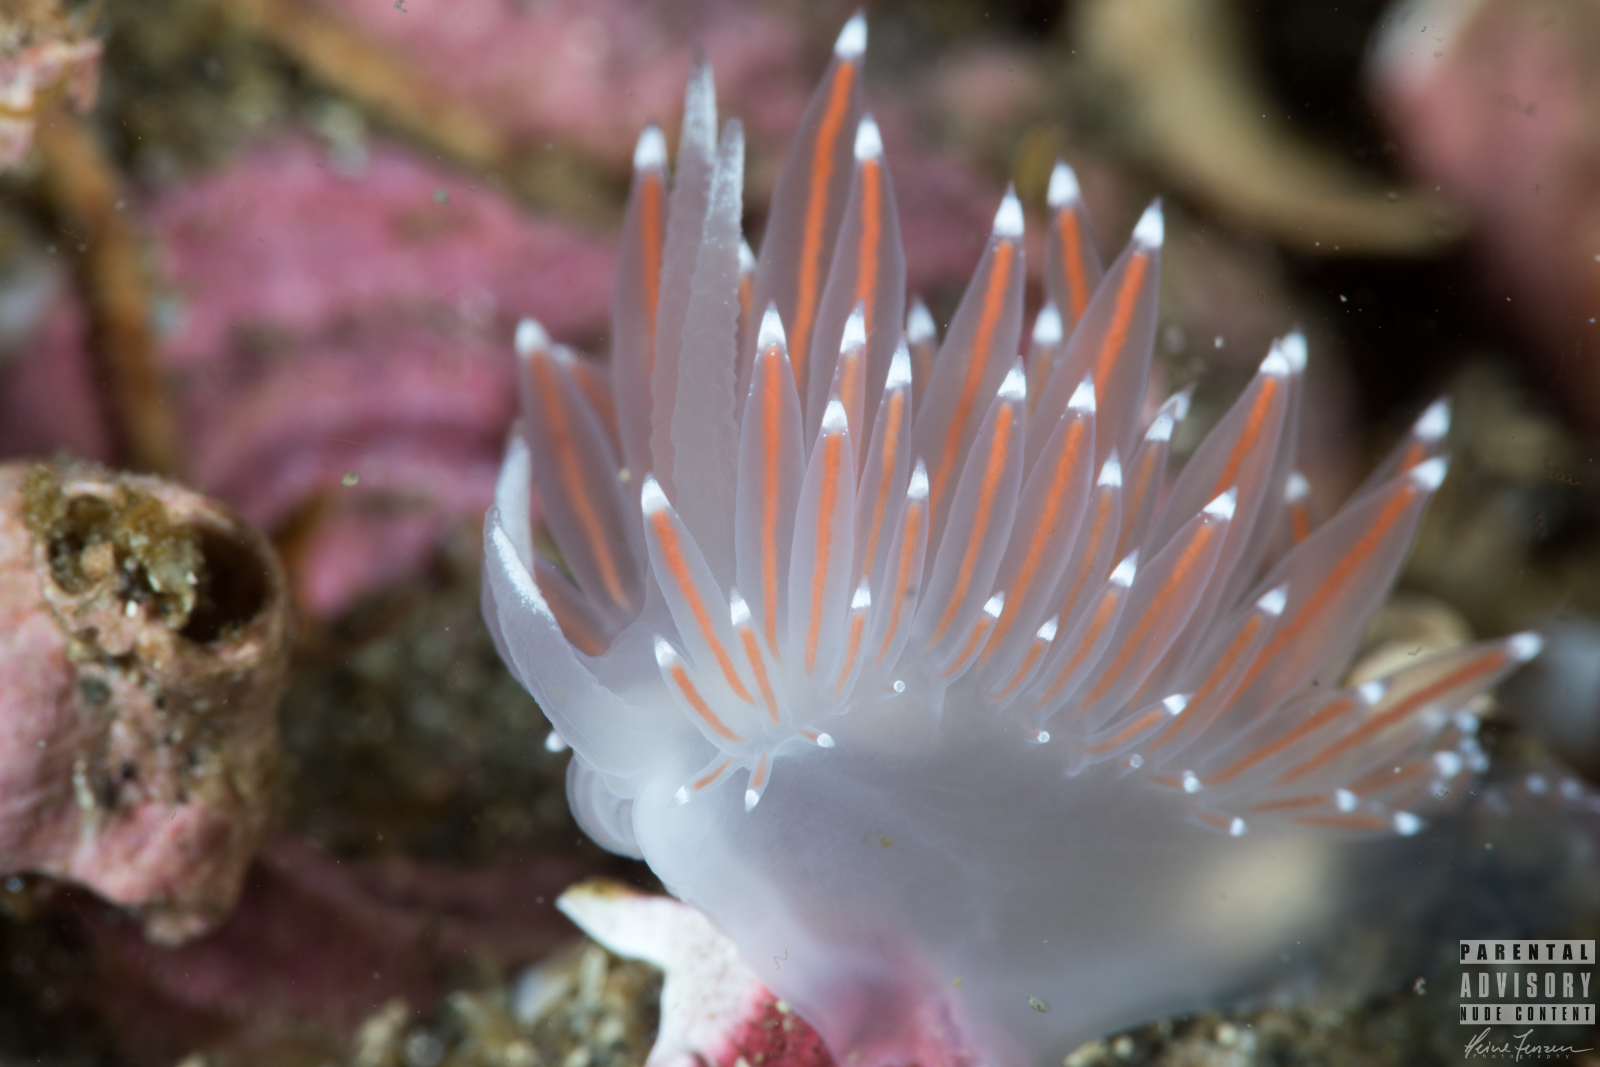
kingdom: Animalia
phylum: Mollusca
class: Gastropoda
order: Nudibranchia
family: Coryphellidae
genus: Coryphella
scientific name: Coryphella browni
